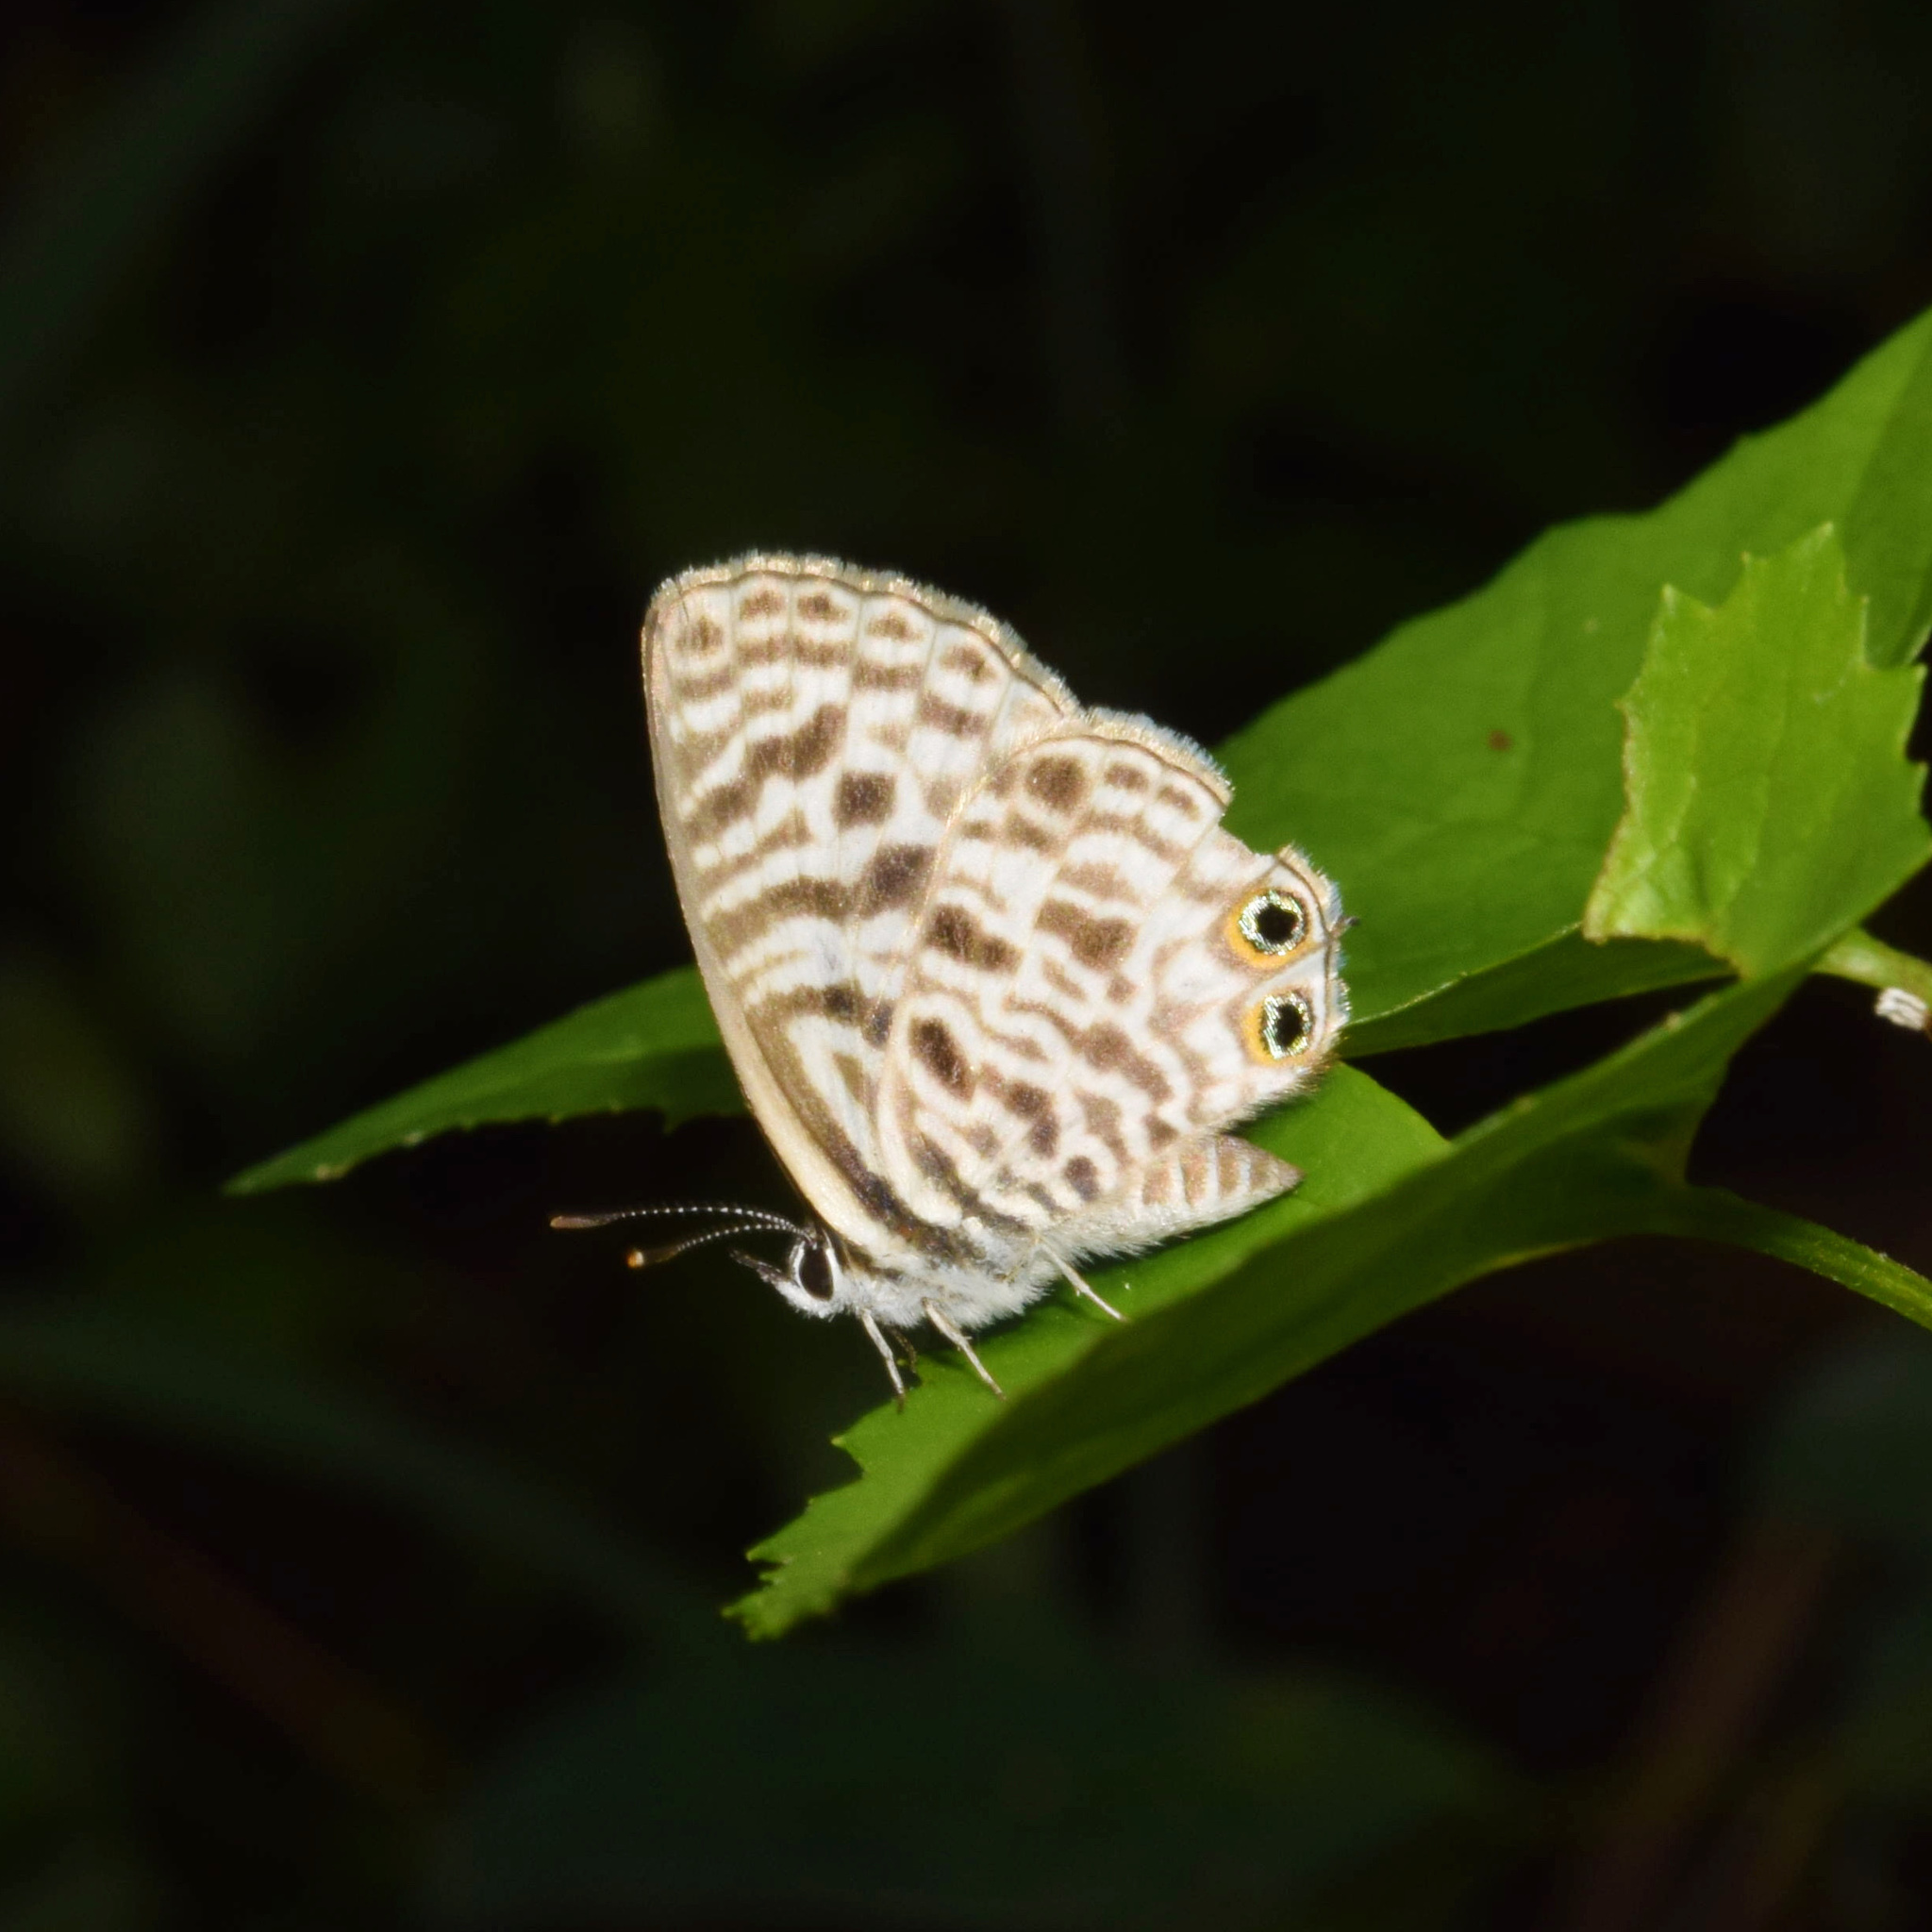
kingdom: Animalia
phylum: Arthropoda
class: Insecta
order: Lepidoptera
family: Lycaenidae
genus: Leptotes
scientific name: Leptotes
